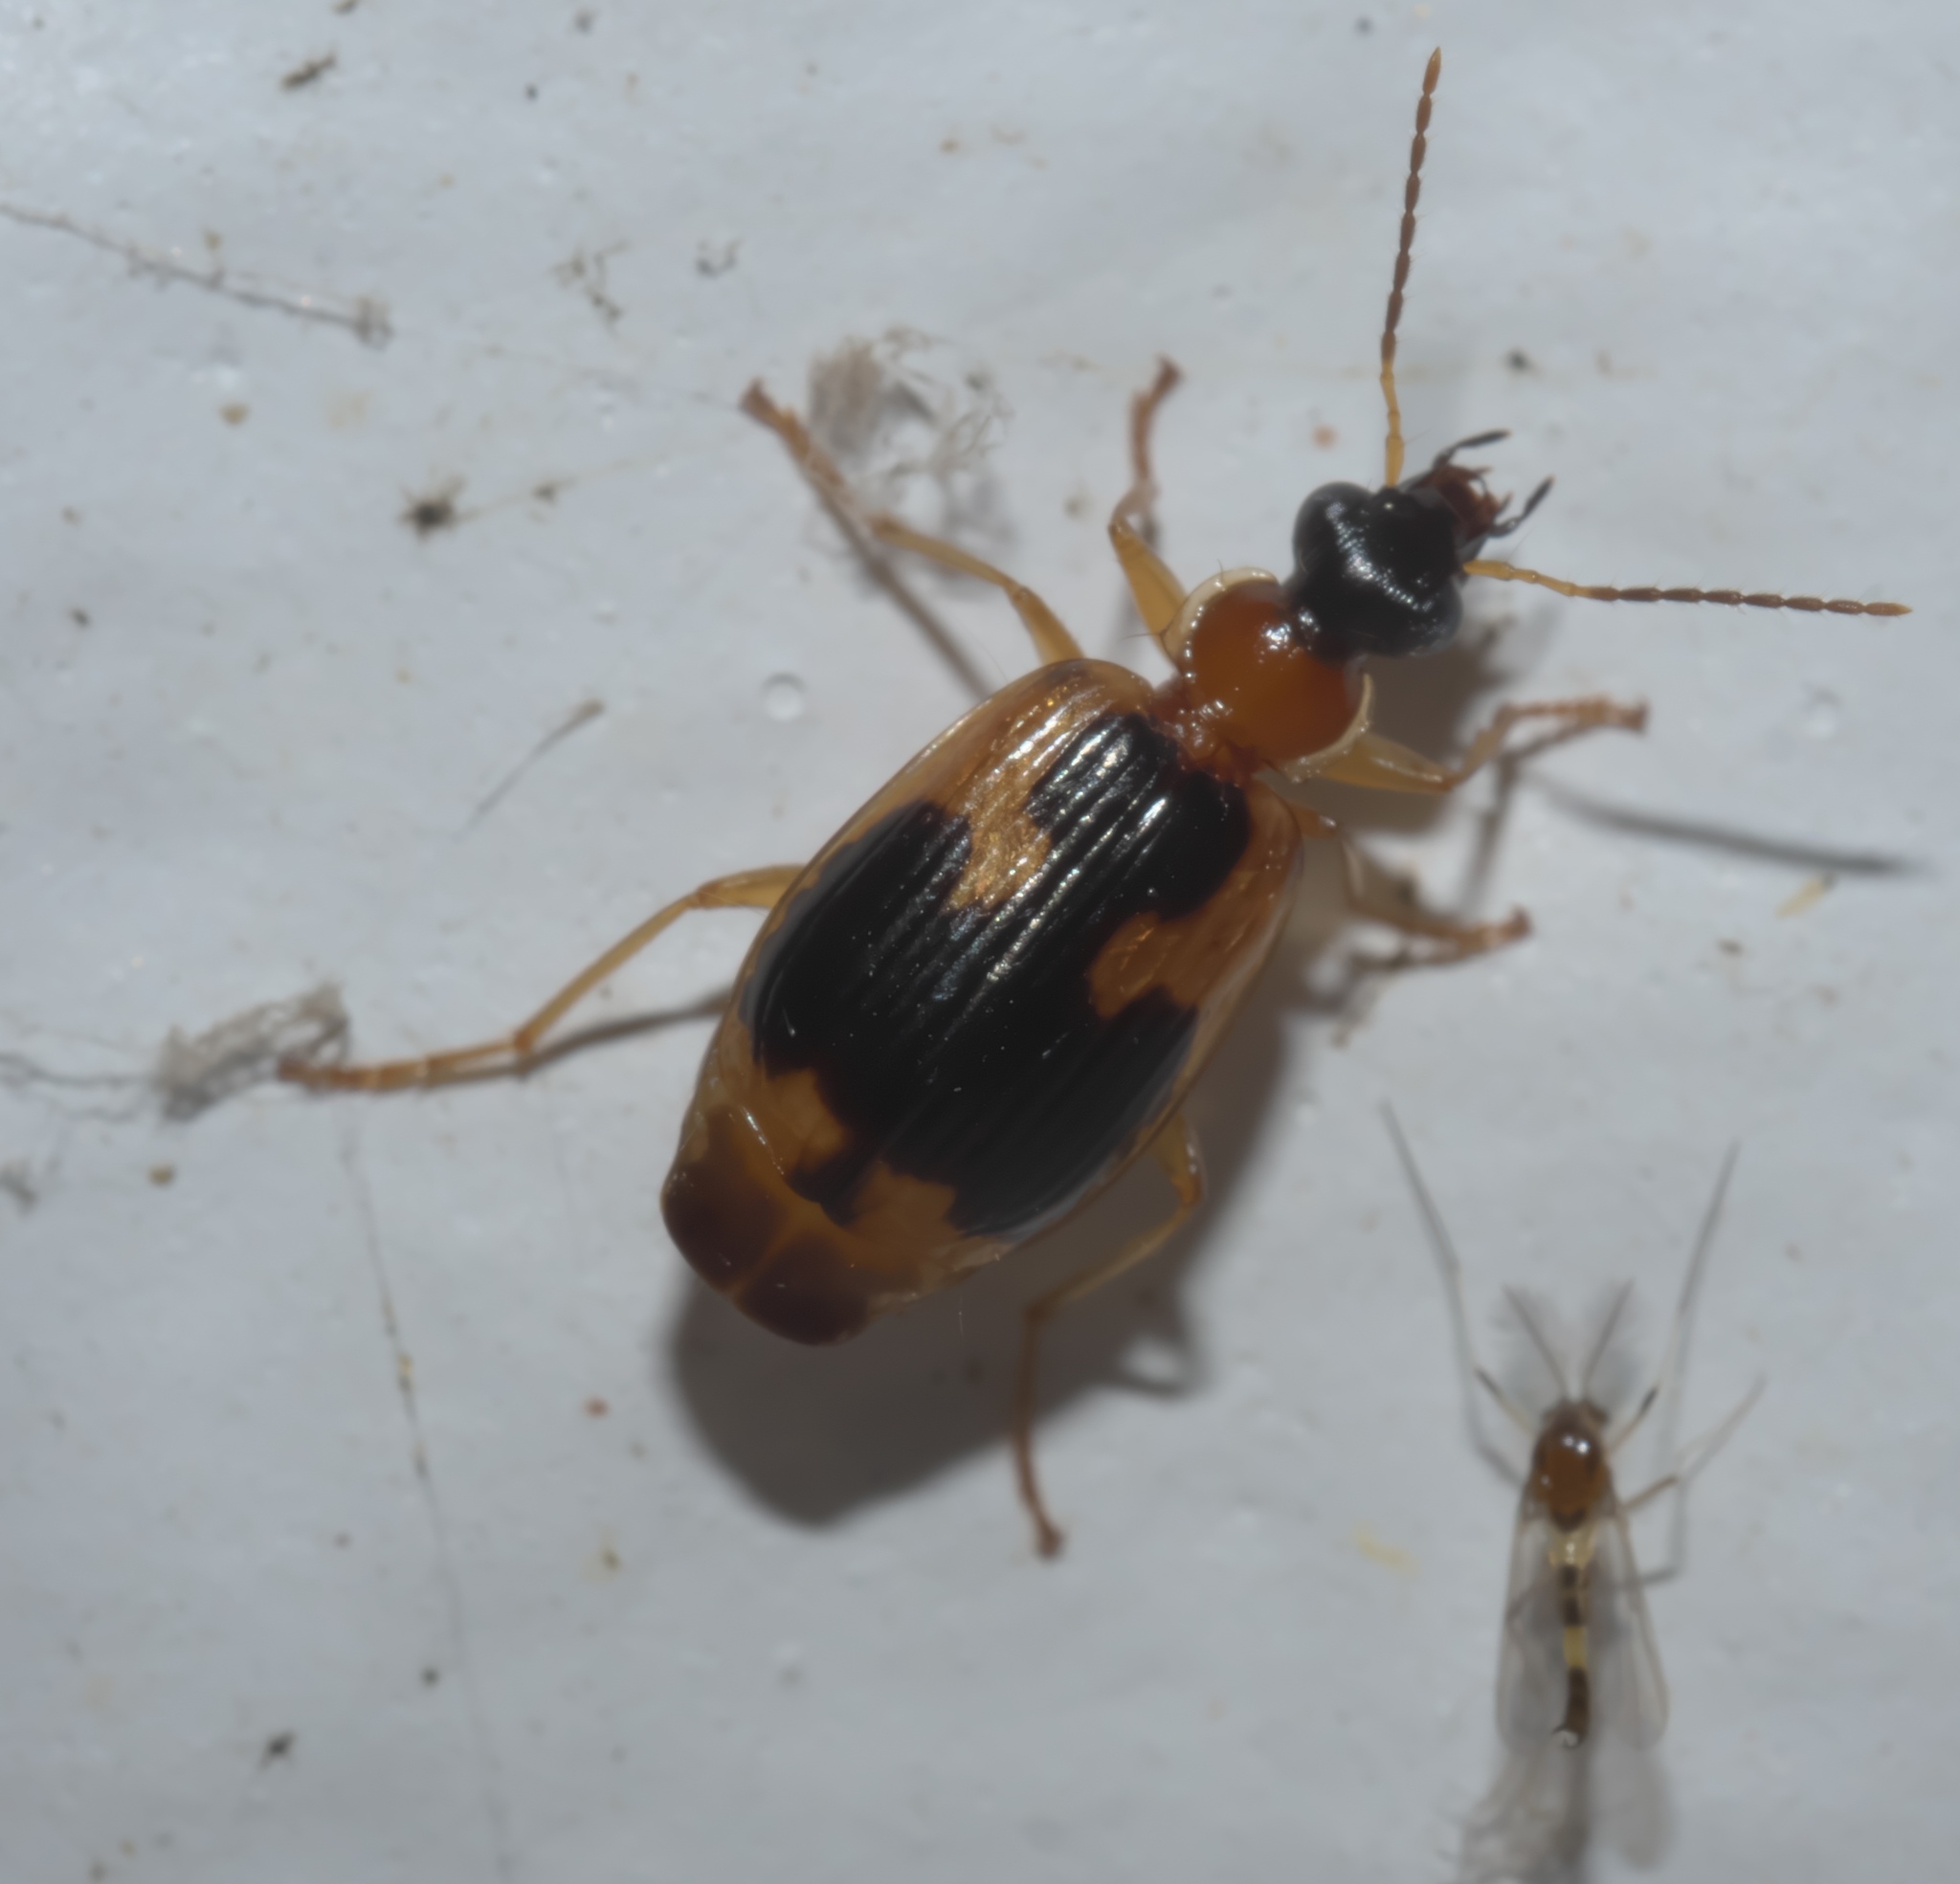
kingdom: Animalia
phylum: Arthropoda
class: Insecta
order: Coleoptera
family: Carabidae
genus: Lebia
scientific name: Lebia analis
